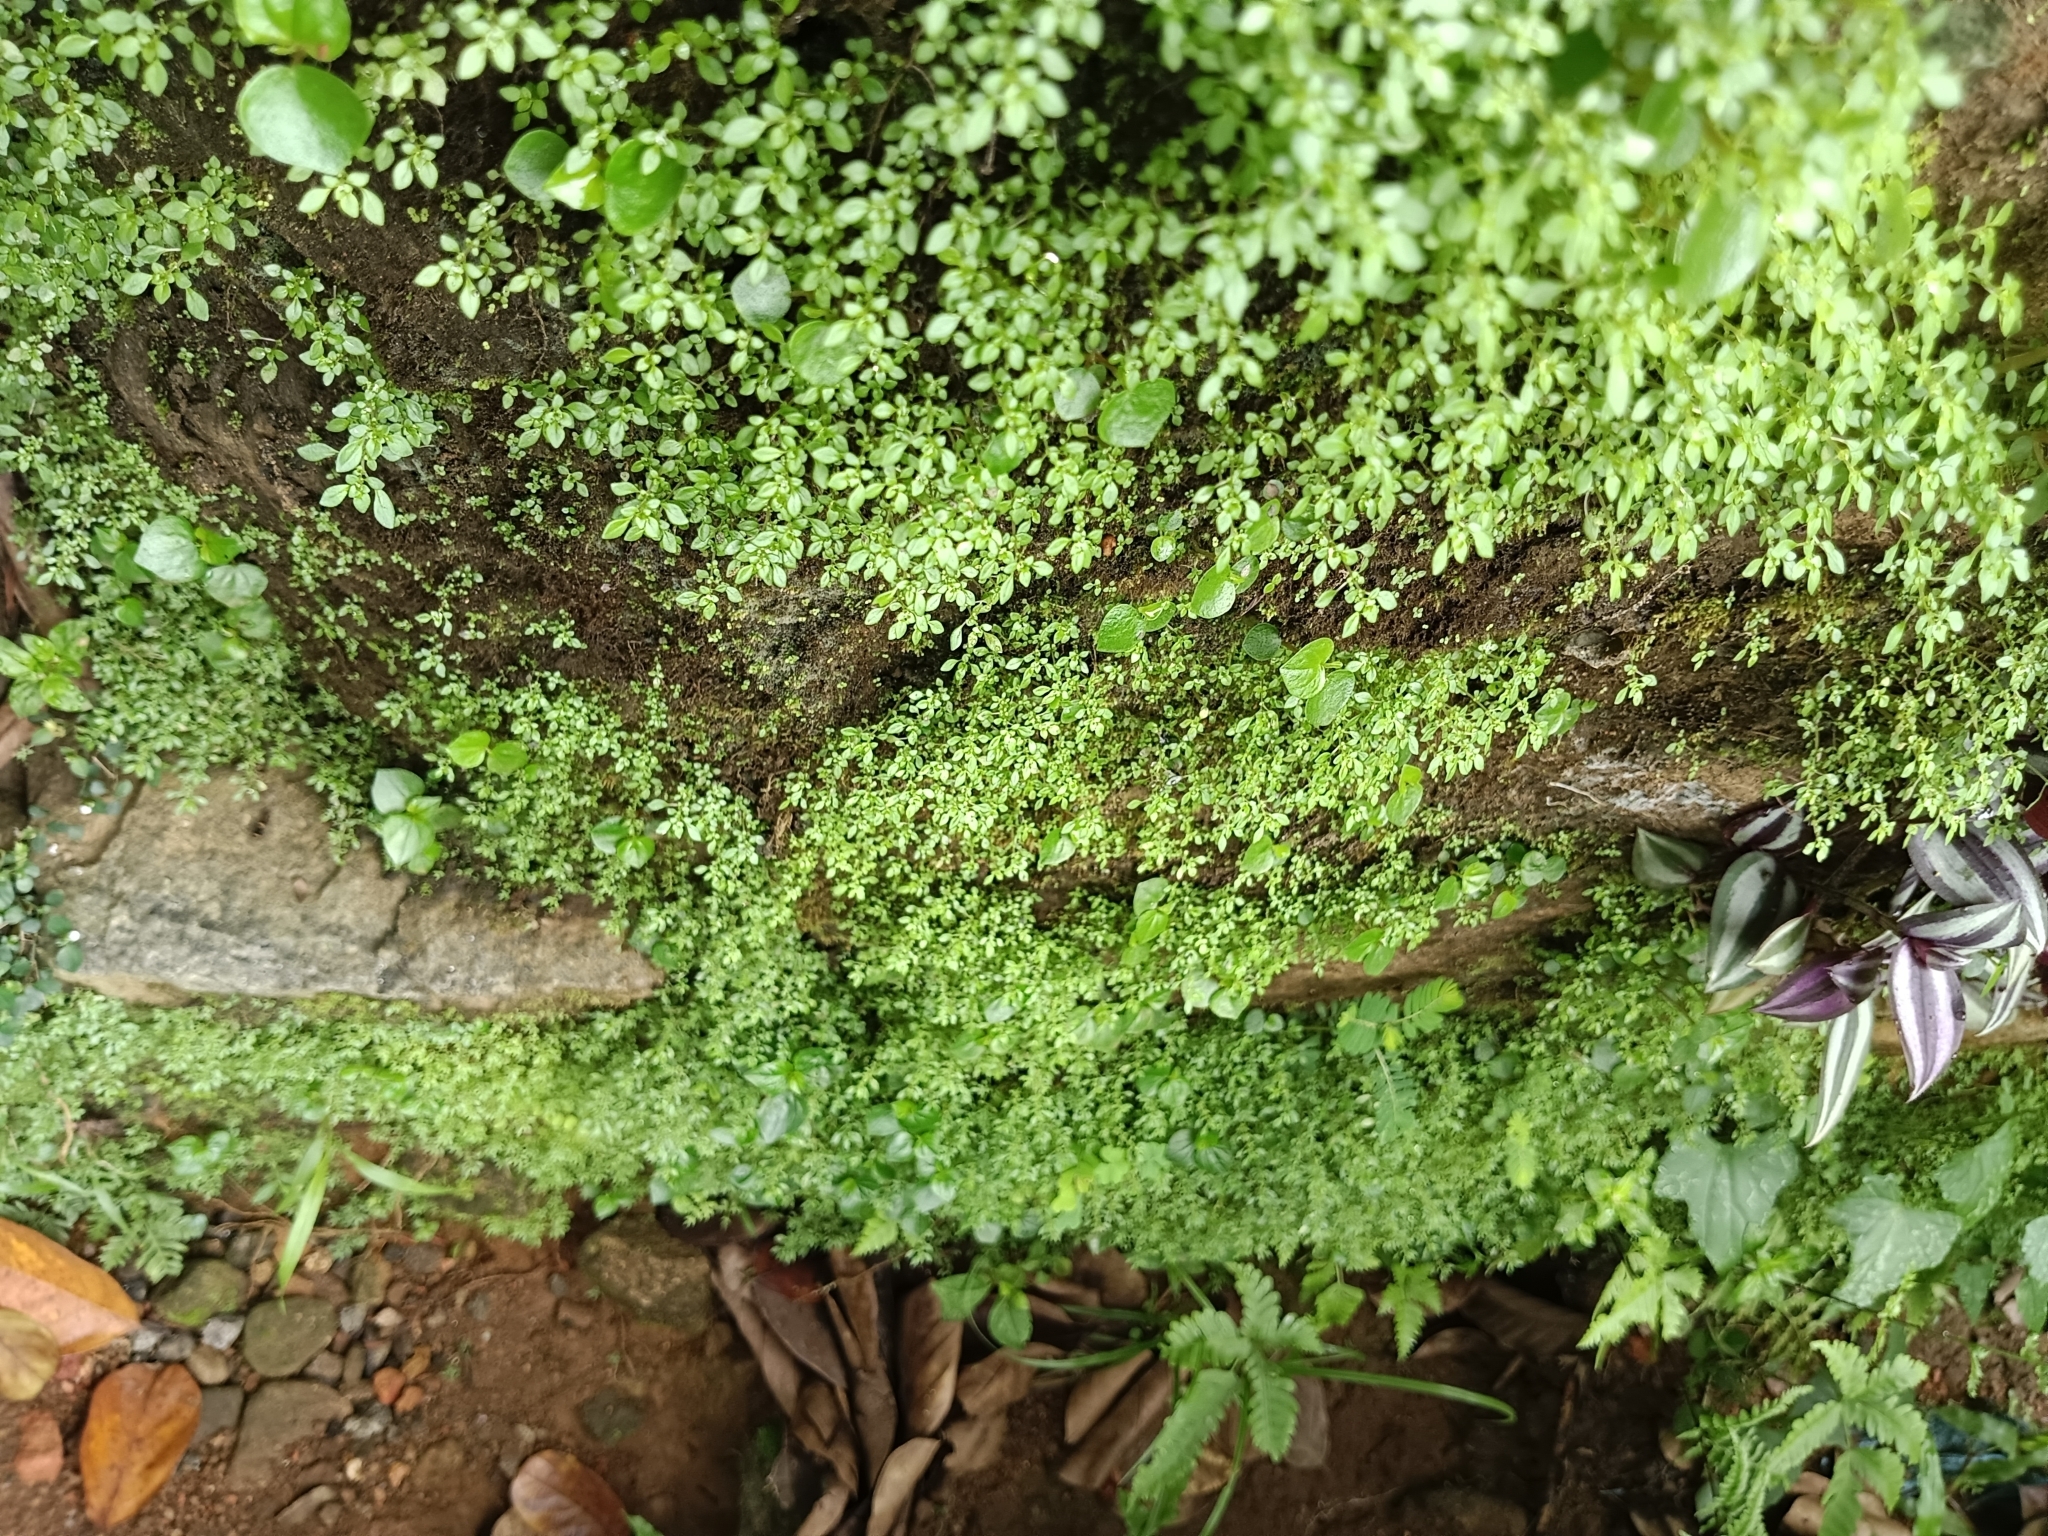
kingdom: Plantae
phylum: Tracheophyta
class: Magnoliopsida
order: Rosales
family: Urticaceae
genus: Pilea
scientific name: Pilea microphylla
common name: Artillery-plant
